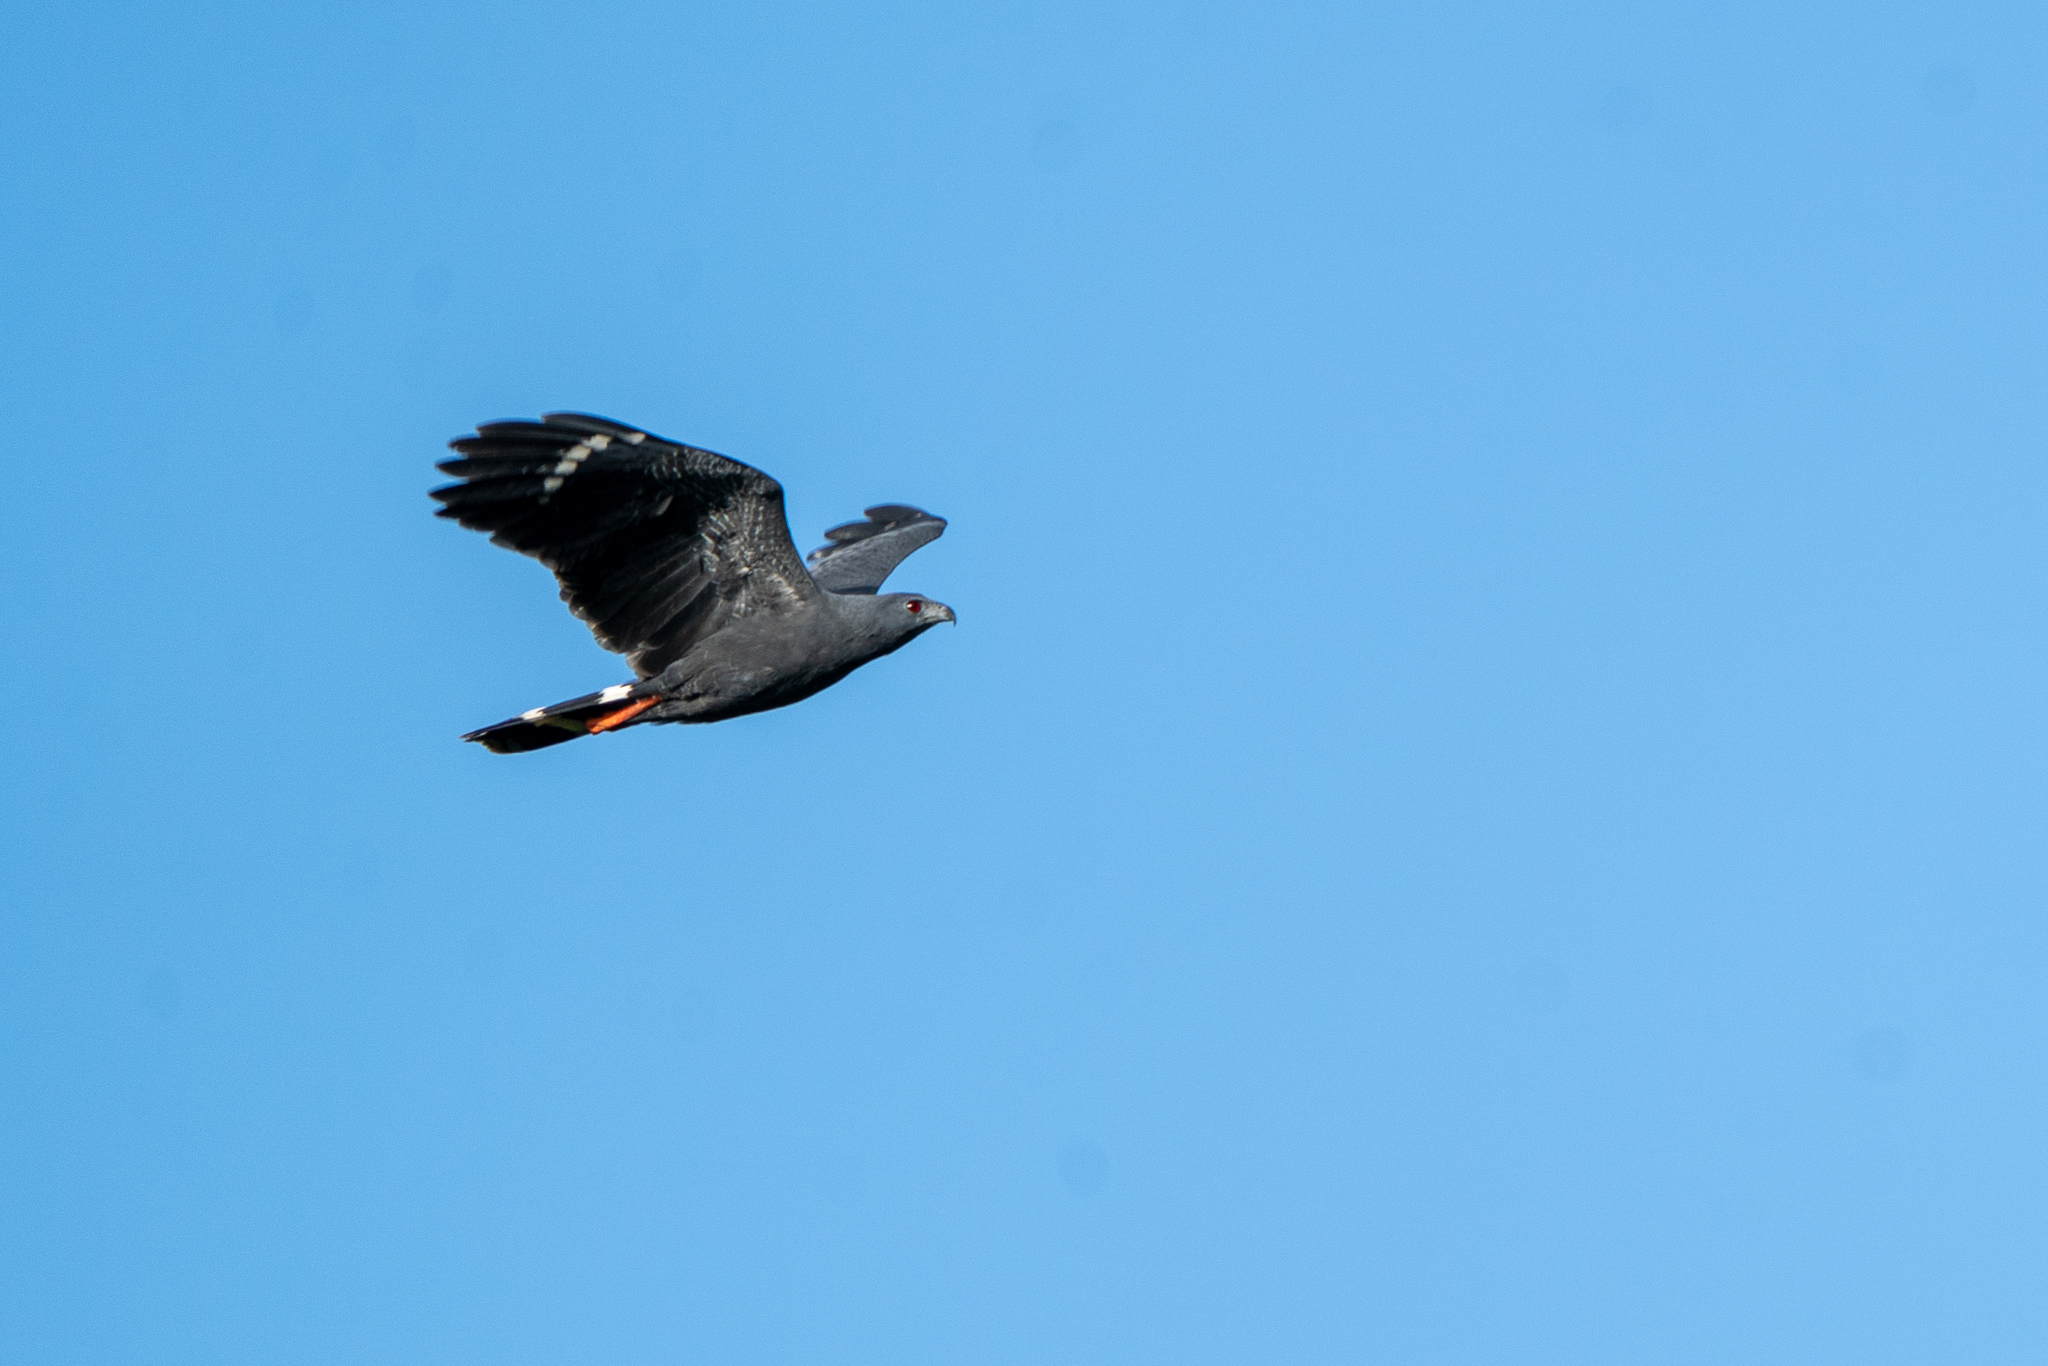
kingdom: Animalia
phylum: Chordata
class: Aves
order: Accipitriformes
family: Accipitridae
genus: Geranospiza
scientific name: Geranospiza caerulescens
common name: Crane hawk
